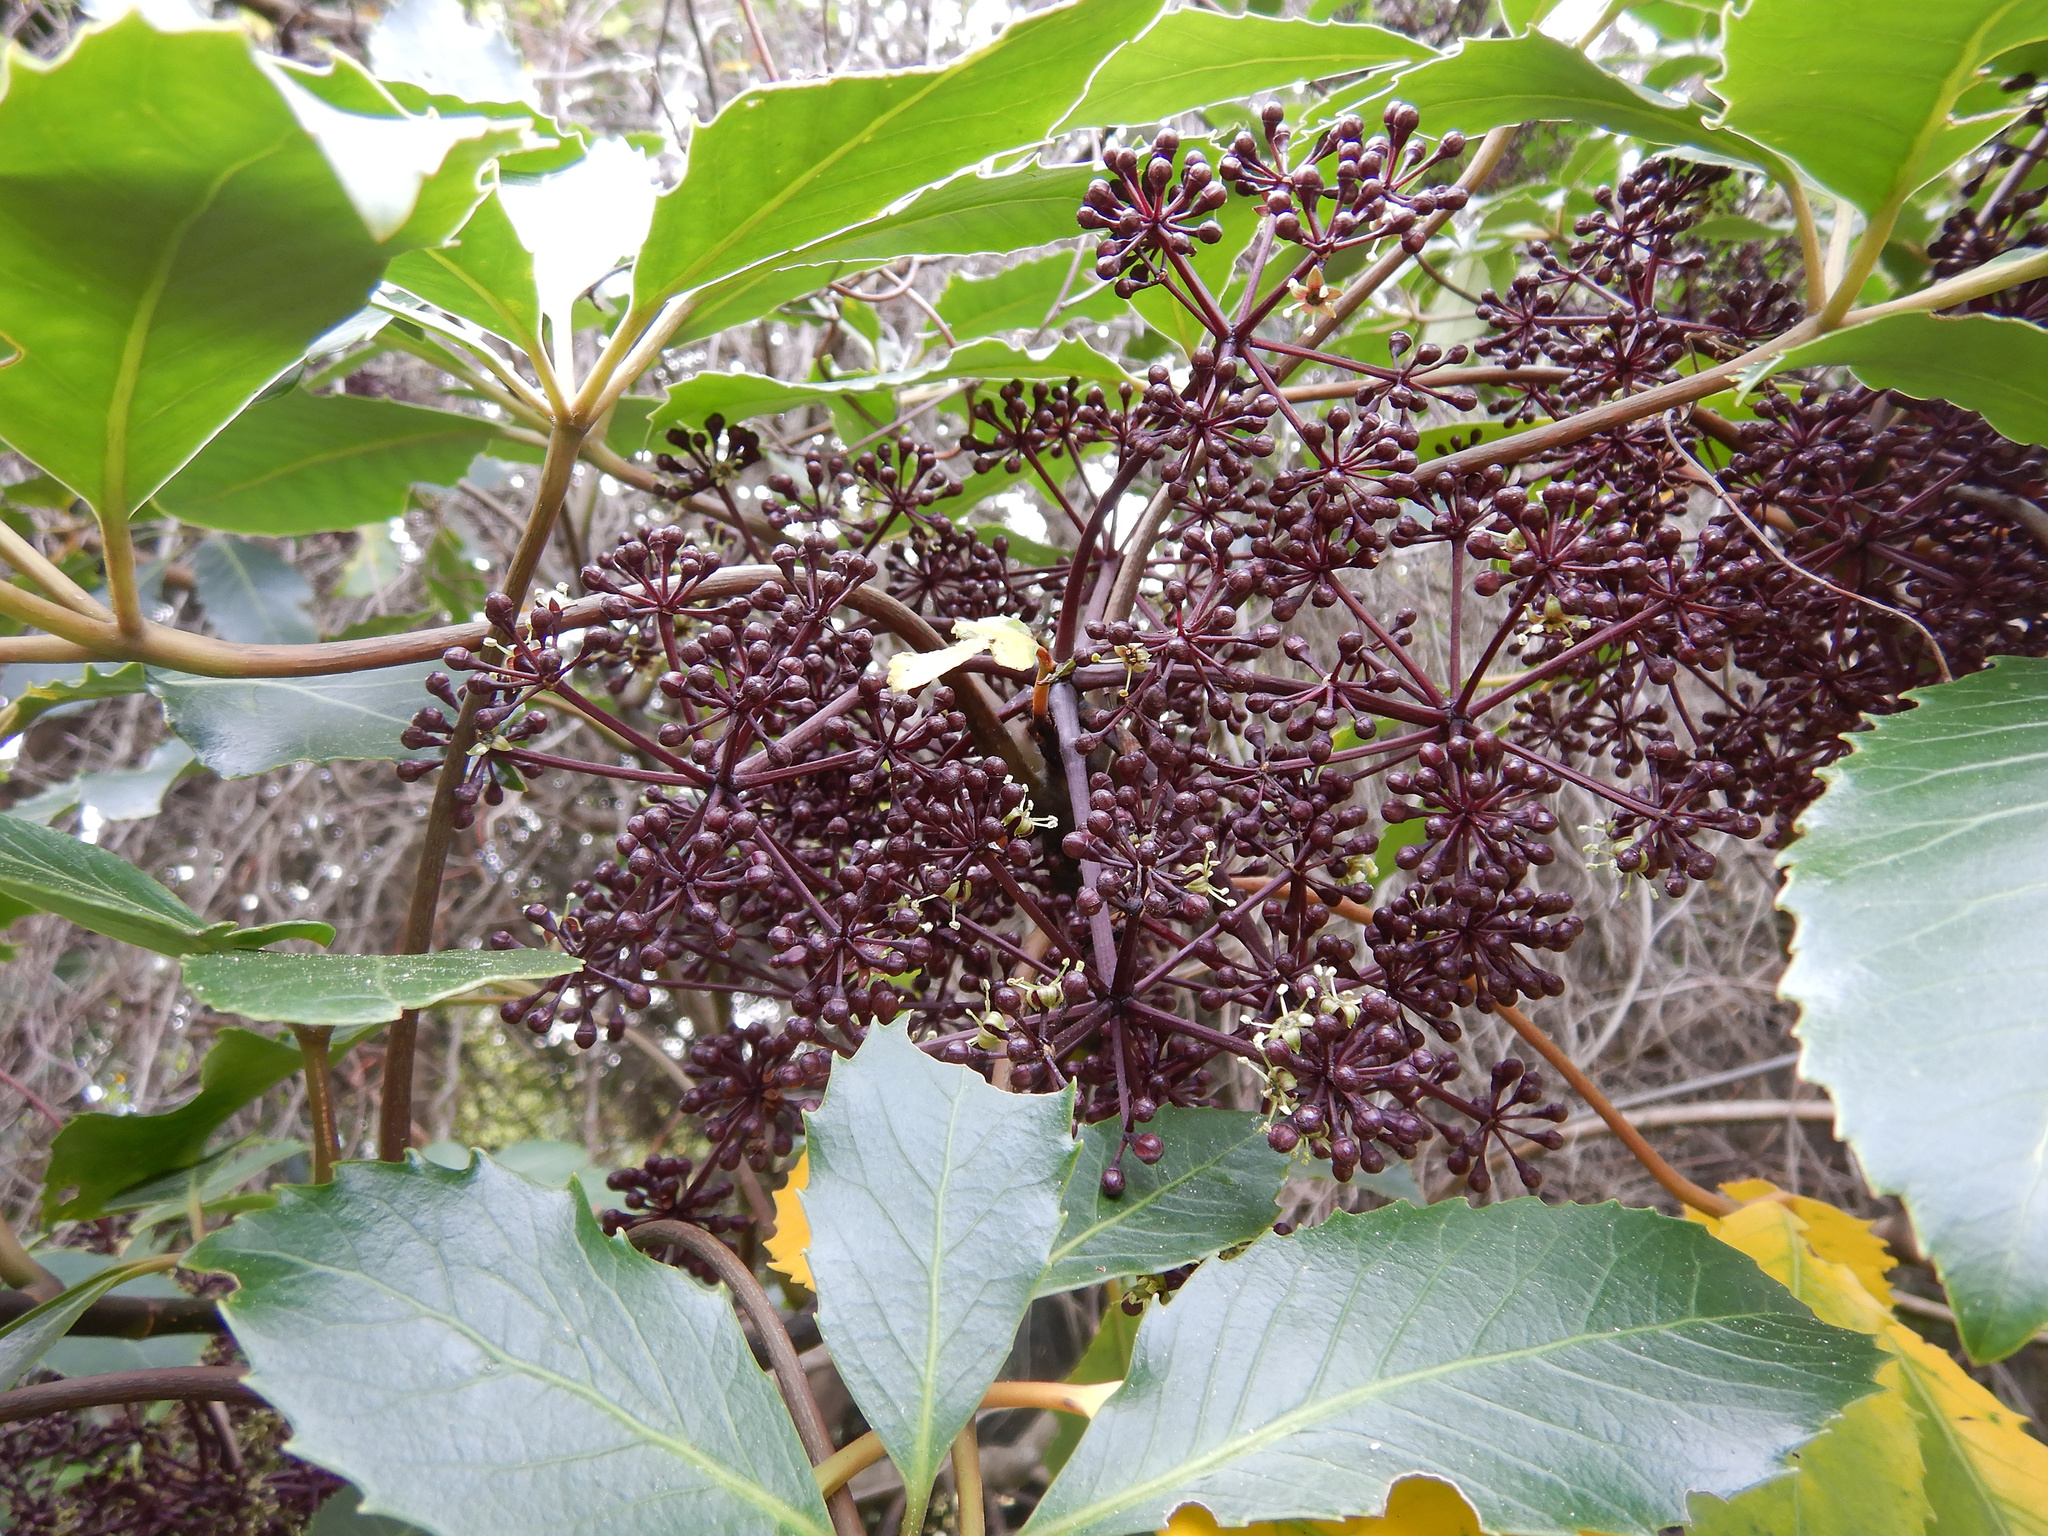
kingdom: Plantae
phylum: Tracheophyta
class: Magnoliopsida
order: Apiales
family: Araliaceae
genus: Neopanax
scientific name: Neopanax arboreus
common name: Five-fingers
